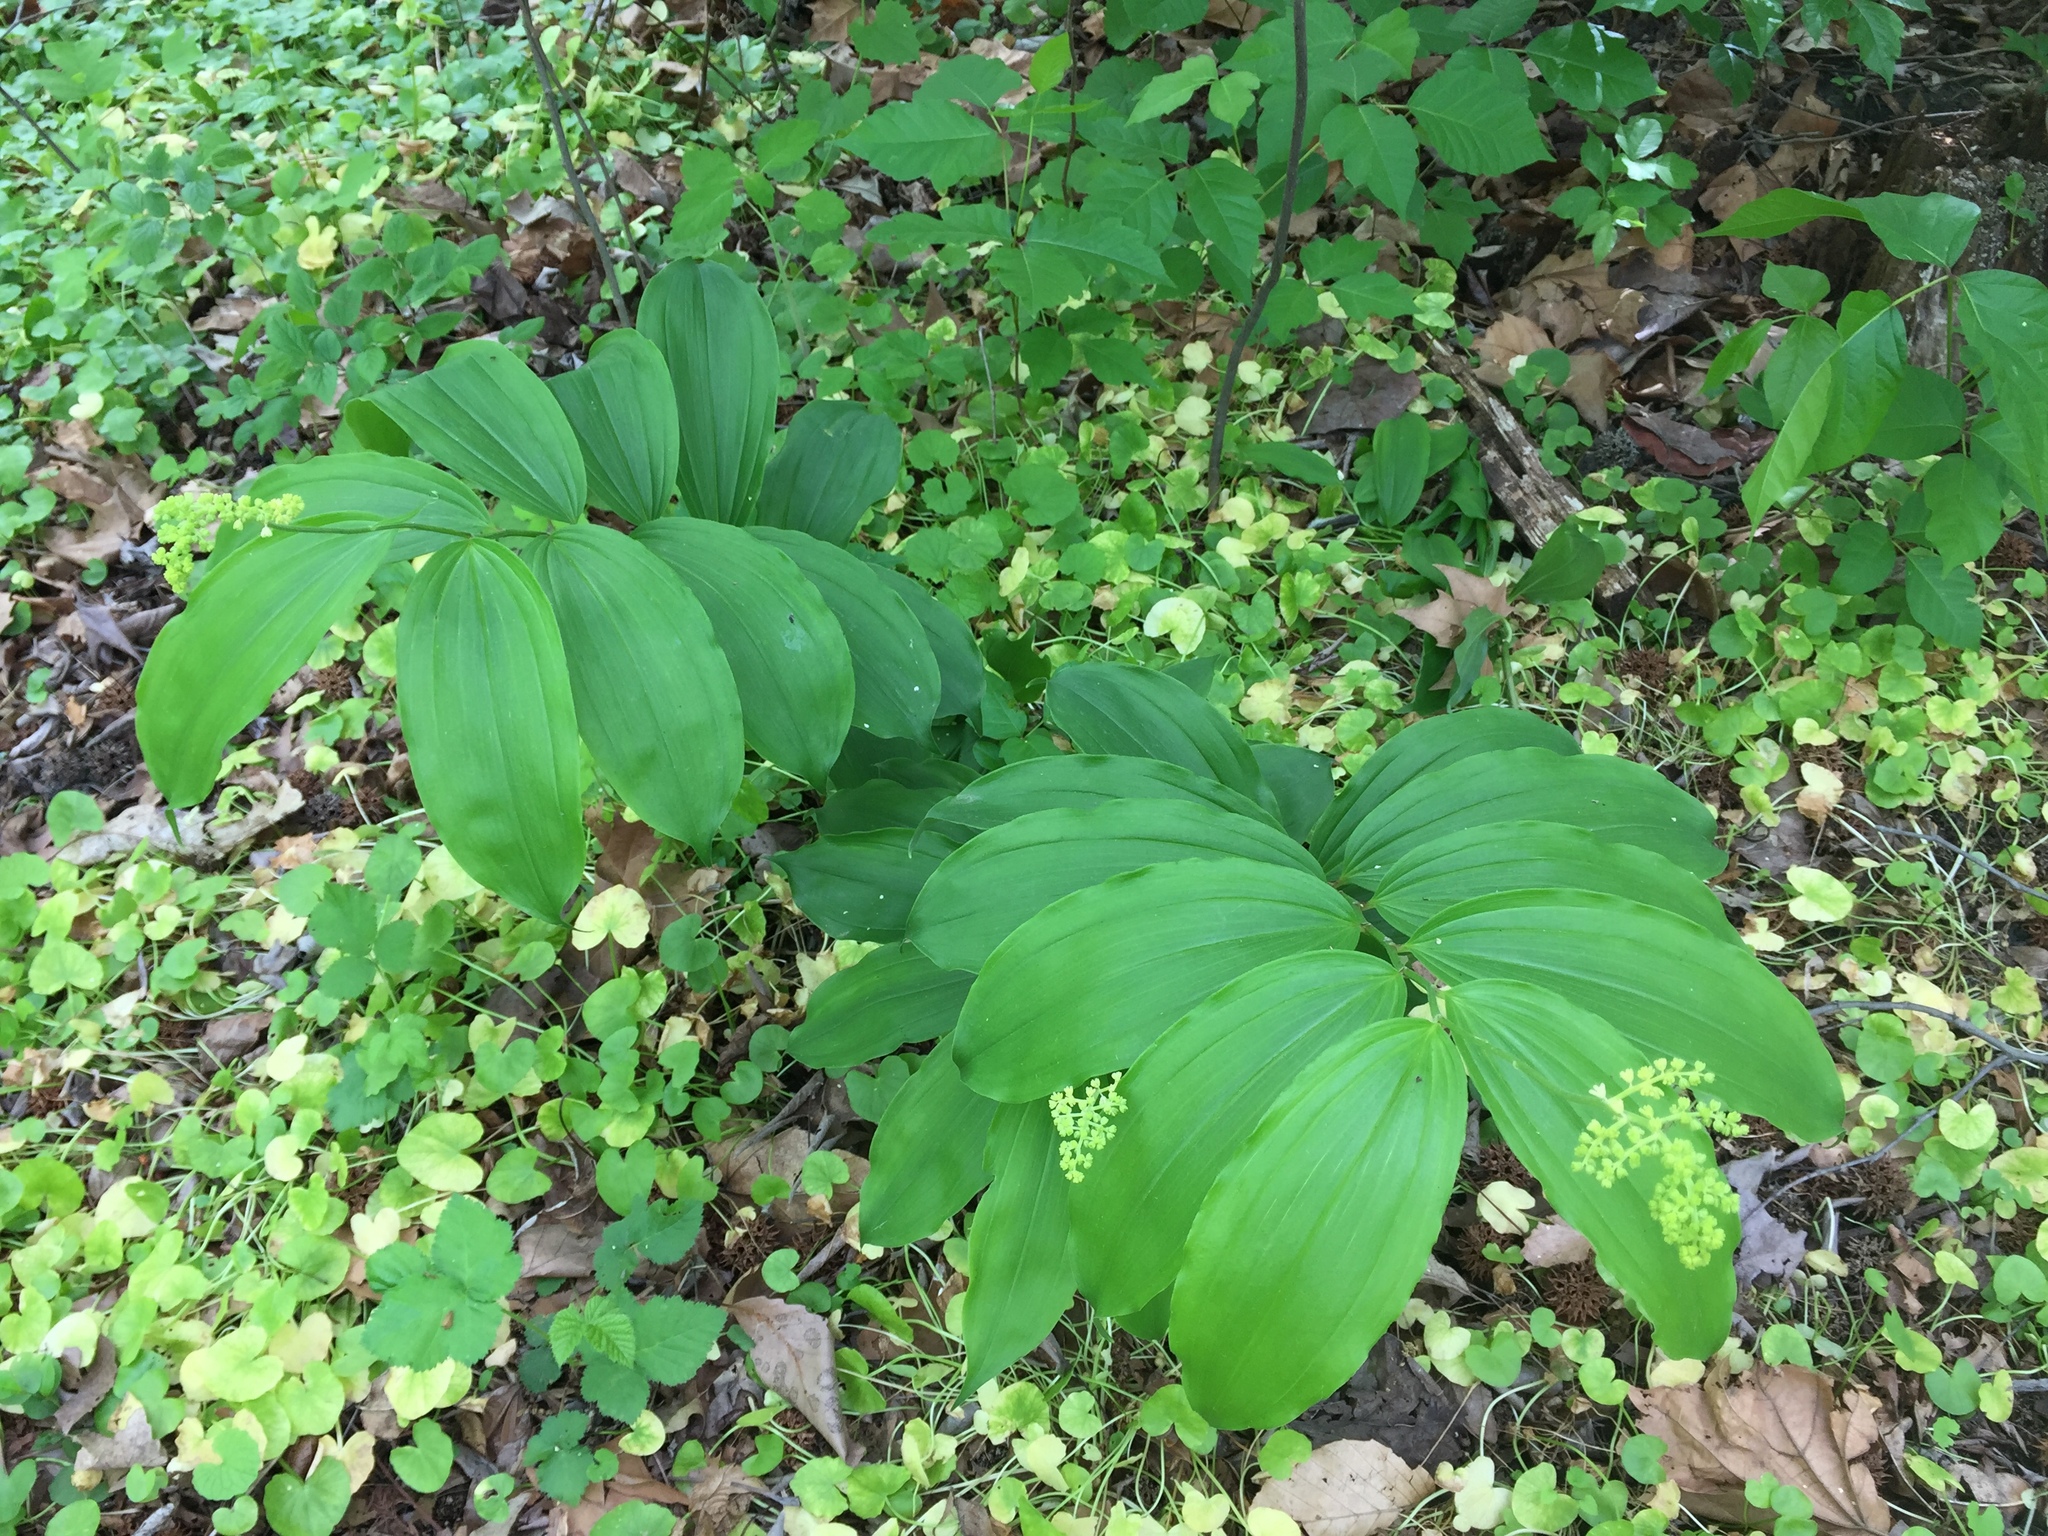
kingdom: Plantae
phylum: Tracheophyta
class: Liliopsida
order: Asparagales
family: Asparagaceae
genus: Maianthemum
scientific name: Maianthemum racemosum
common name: False spikenard
